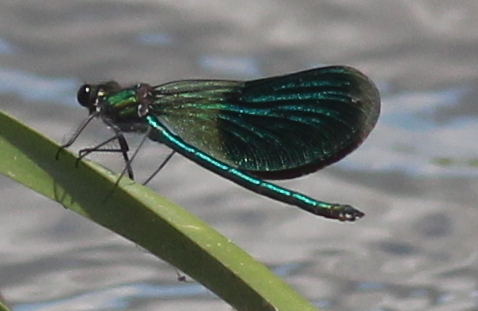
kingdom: Animalia
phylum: Arthropoda
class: Insecta
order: Odonata
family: Calopterygidae
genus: Calopteryx
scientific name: Calopteryx splendens
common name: Banded demoiselle
